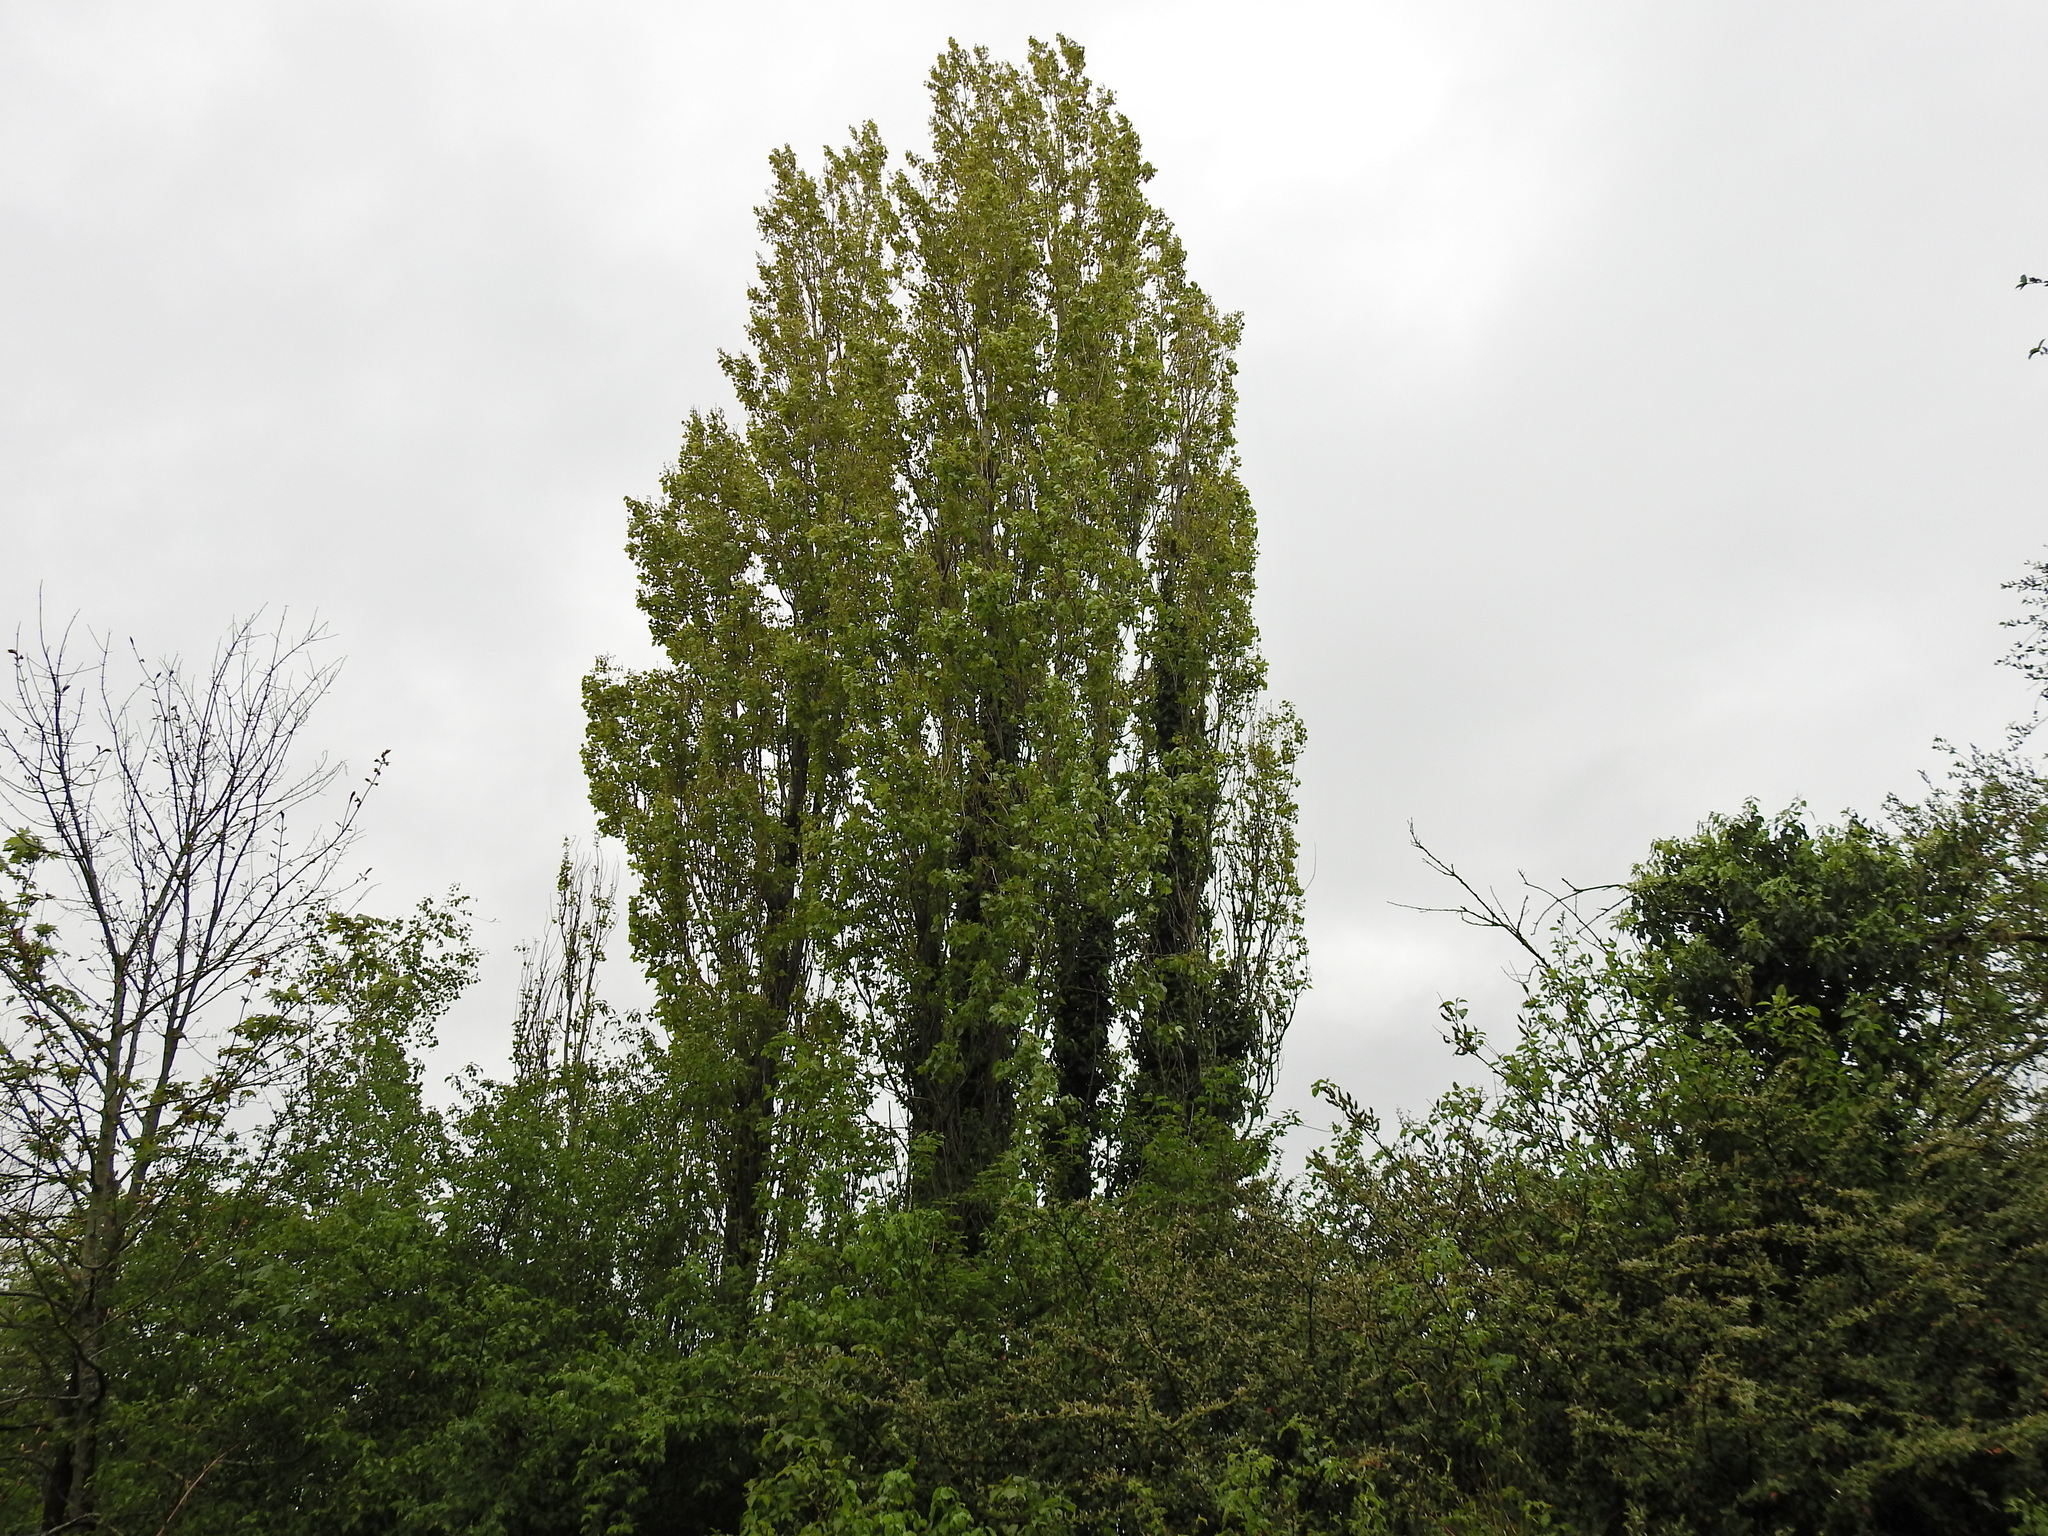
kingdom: Plantae
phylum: Tracheophyta
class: Magnoliopsida
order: Malpighiales
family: Salicaceae
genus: Populus
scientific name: Populus nigra
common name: Black poplar
